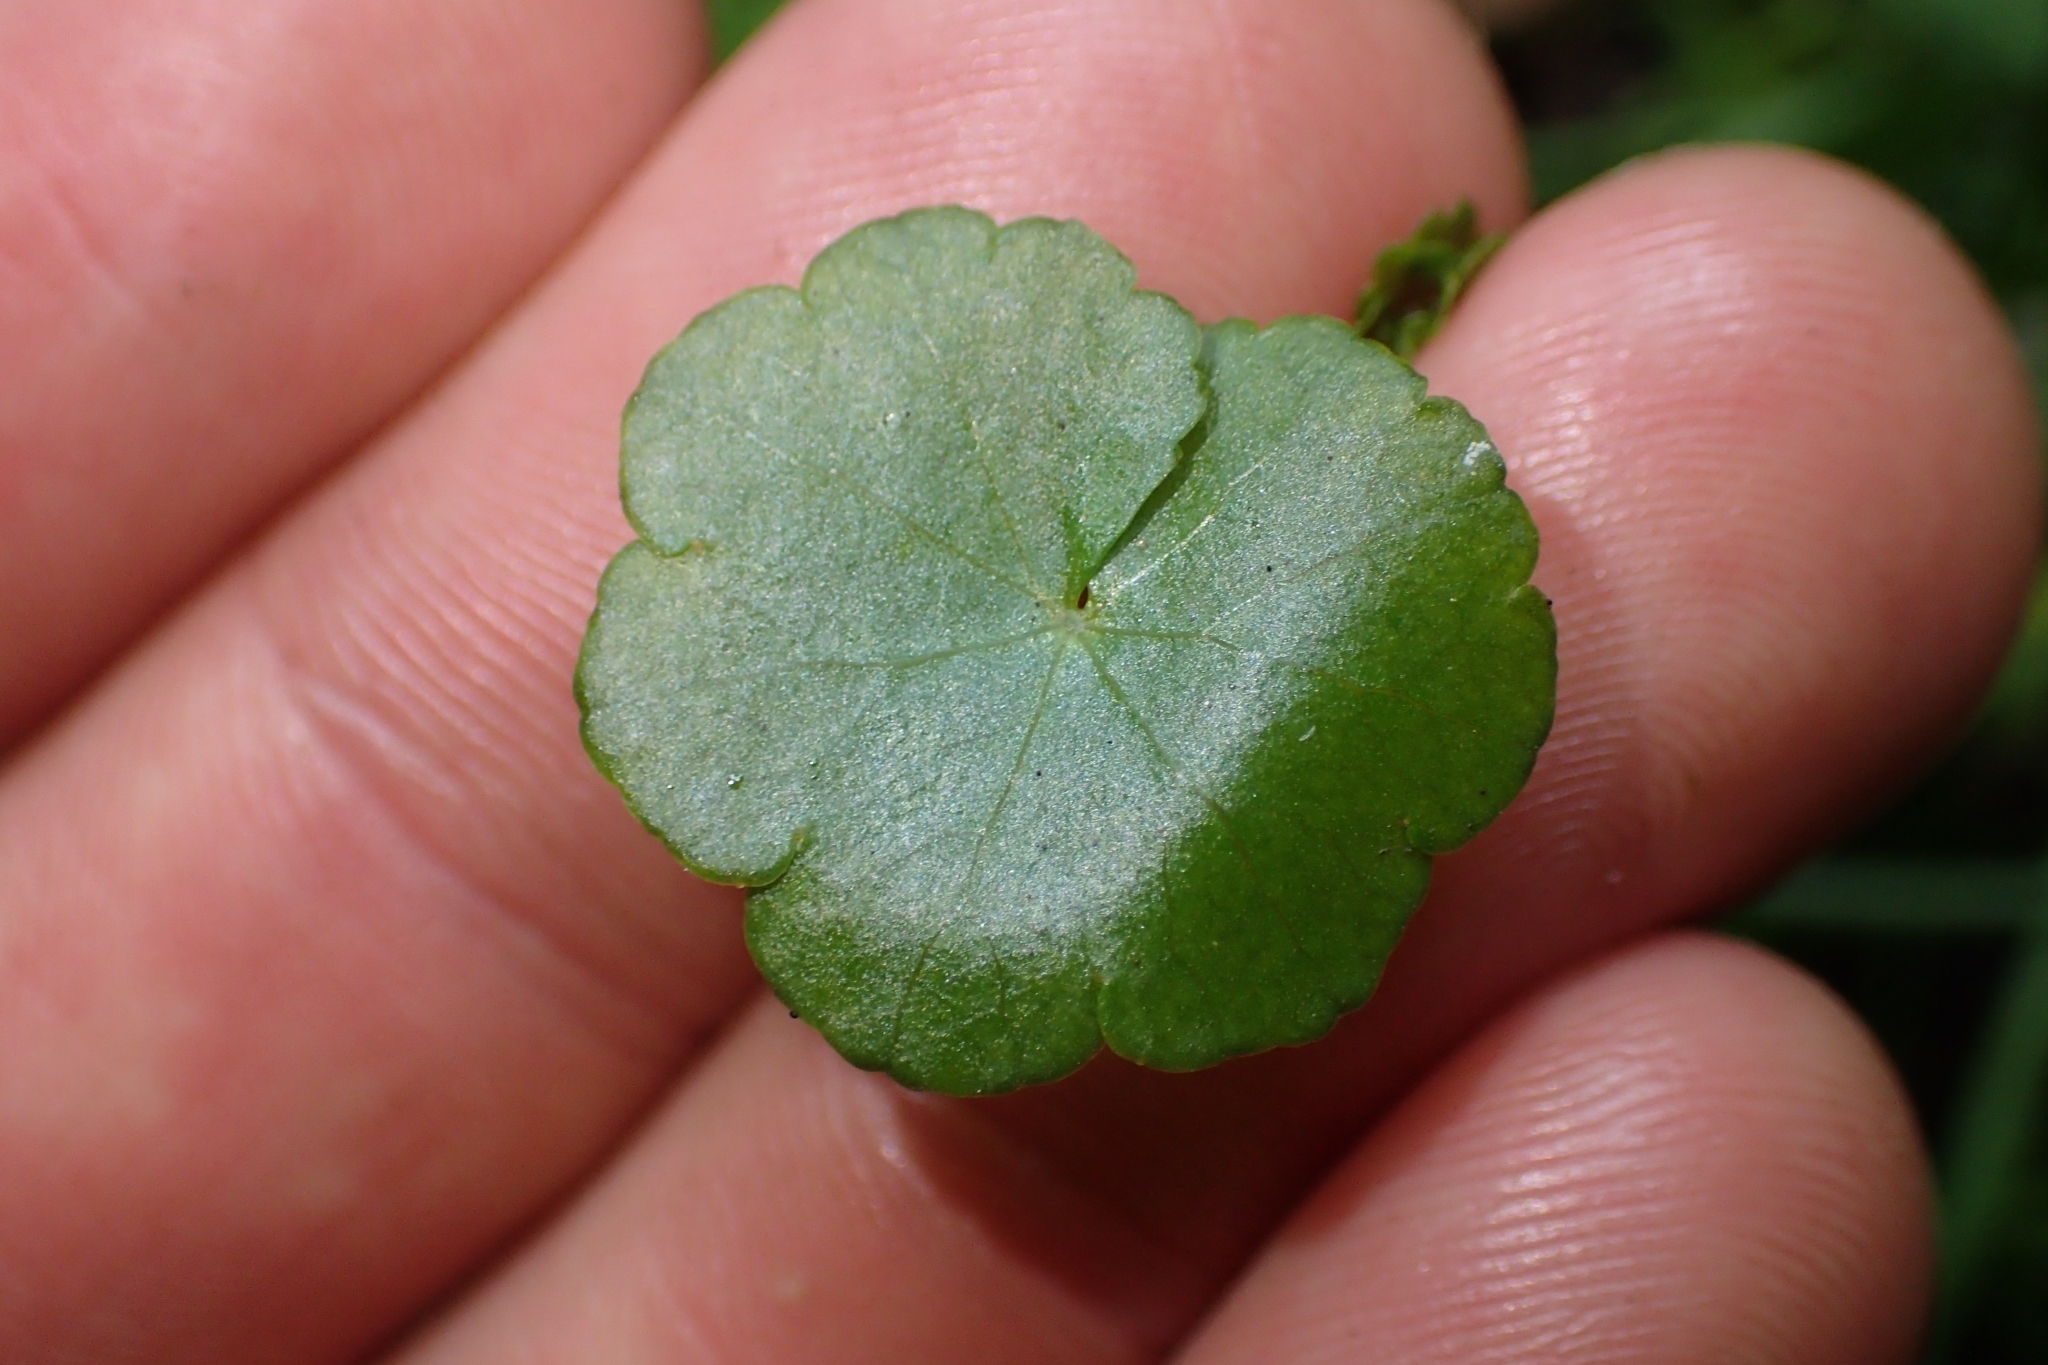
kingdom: Plantae
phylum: Tracheophyta
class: Magnoliopsida
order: Apiales
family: Araliaceae
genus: Hydrocotyle
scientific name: Hydrocotyle pterocarpa
